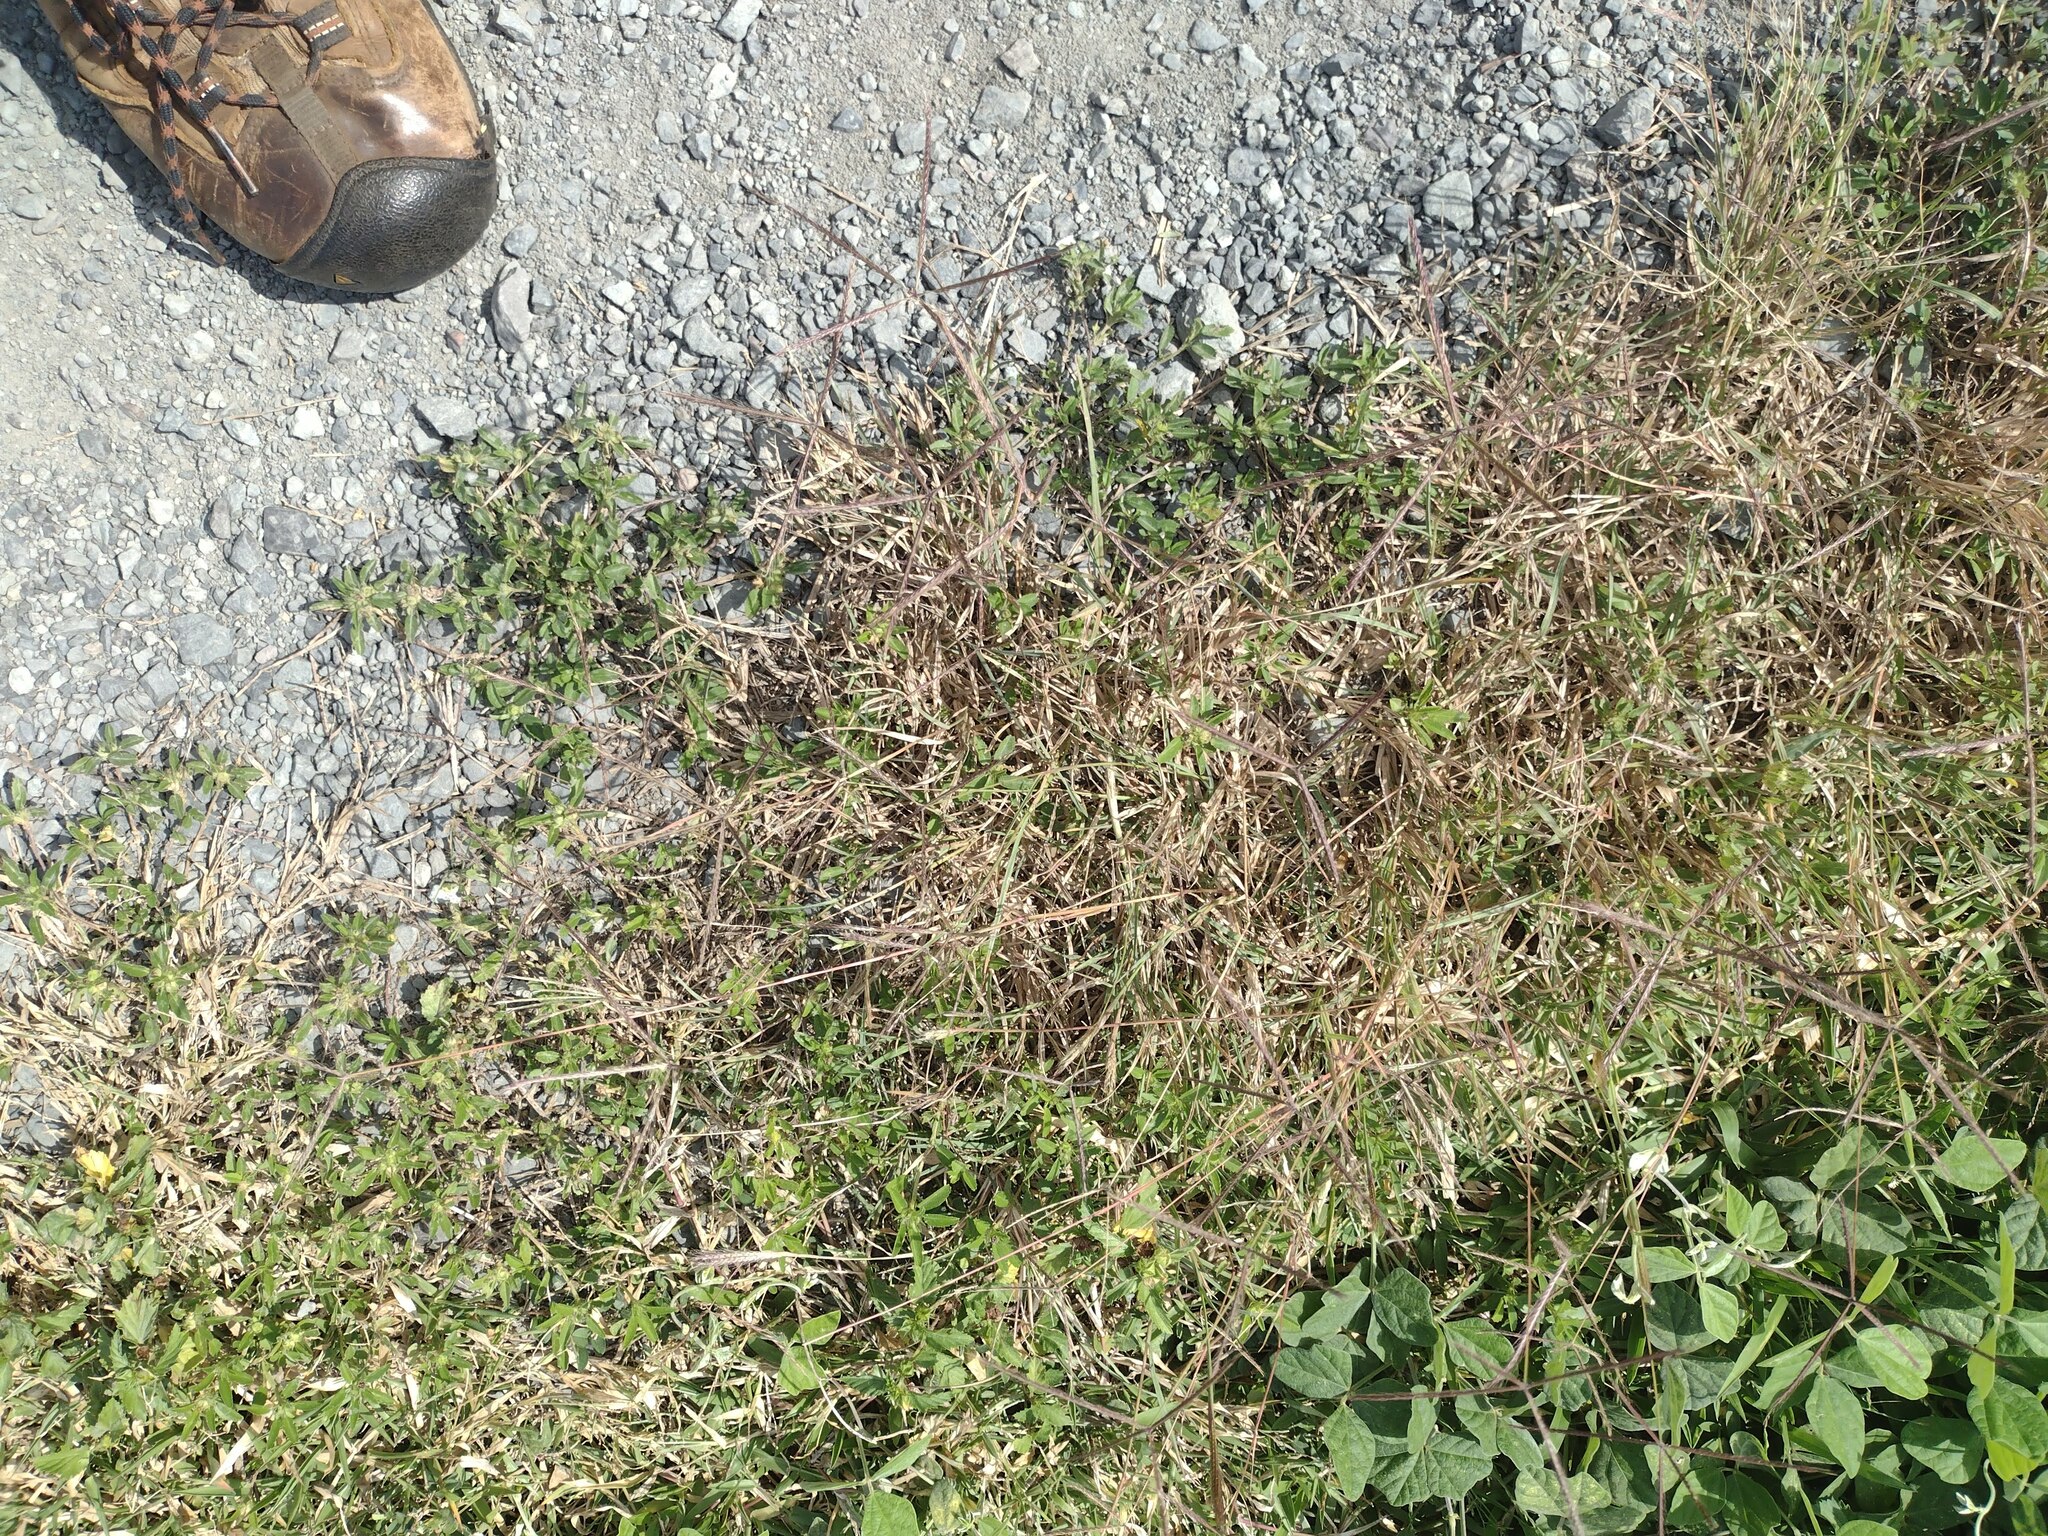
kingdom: Plantae
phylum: Tracheophyta
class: Liliopsida
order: Poales
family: Poaceae
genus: Cynodon
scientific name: Cynodon dactylon
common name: Bermuda grass
